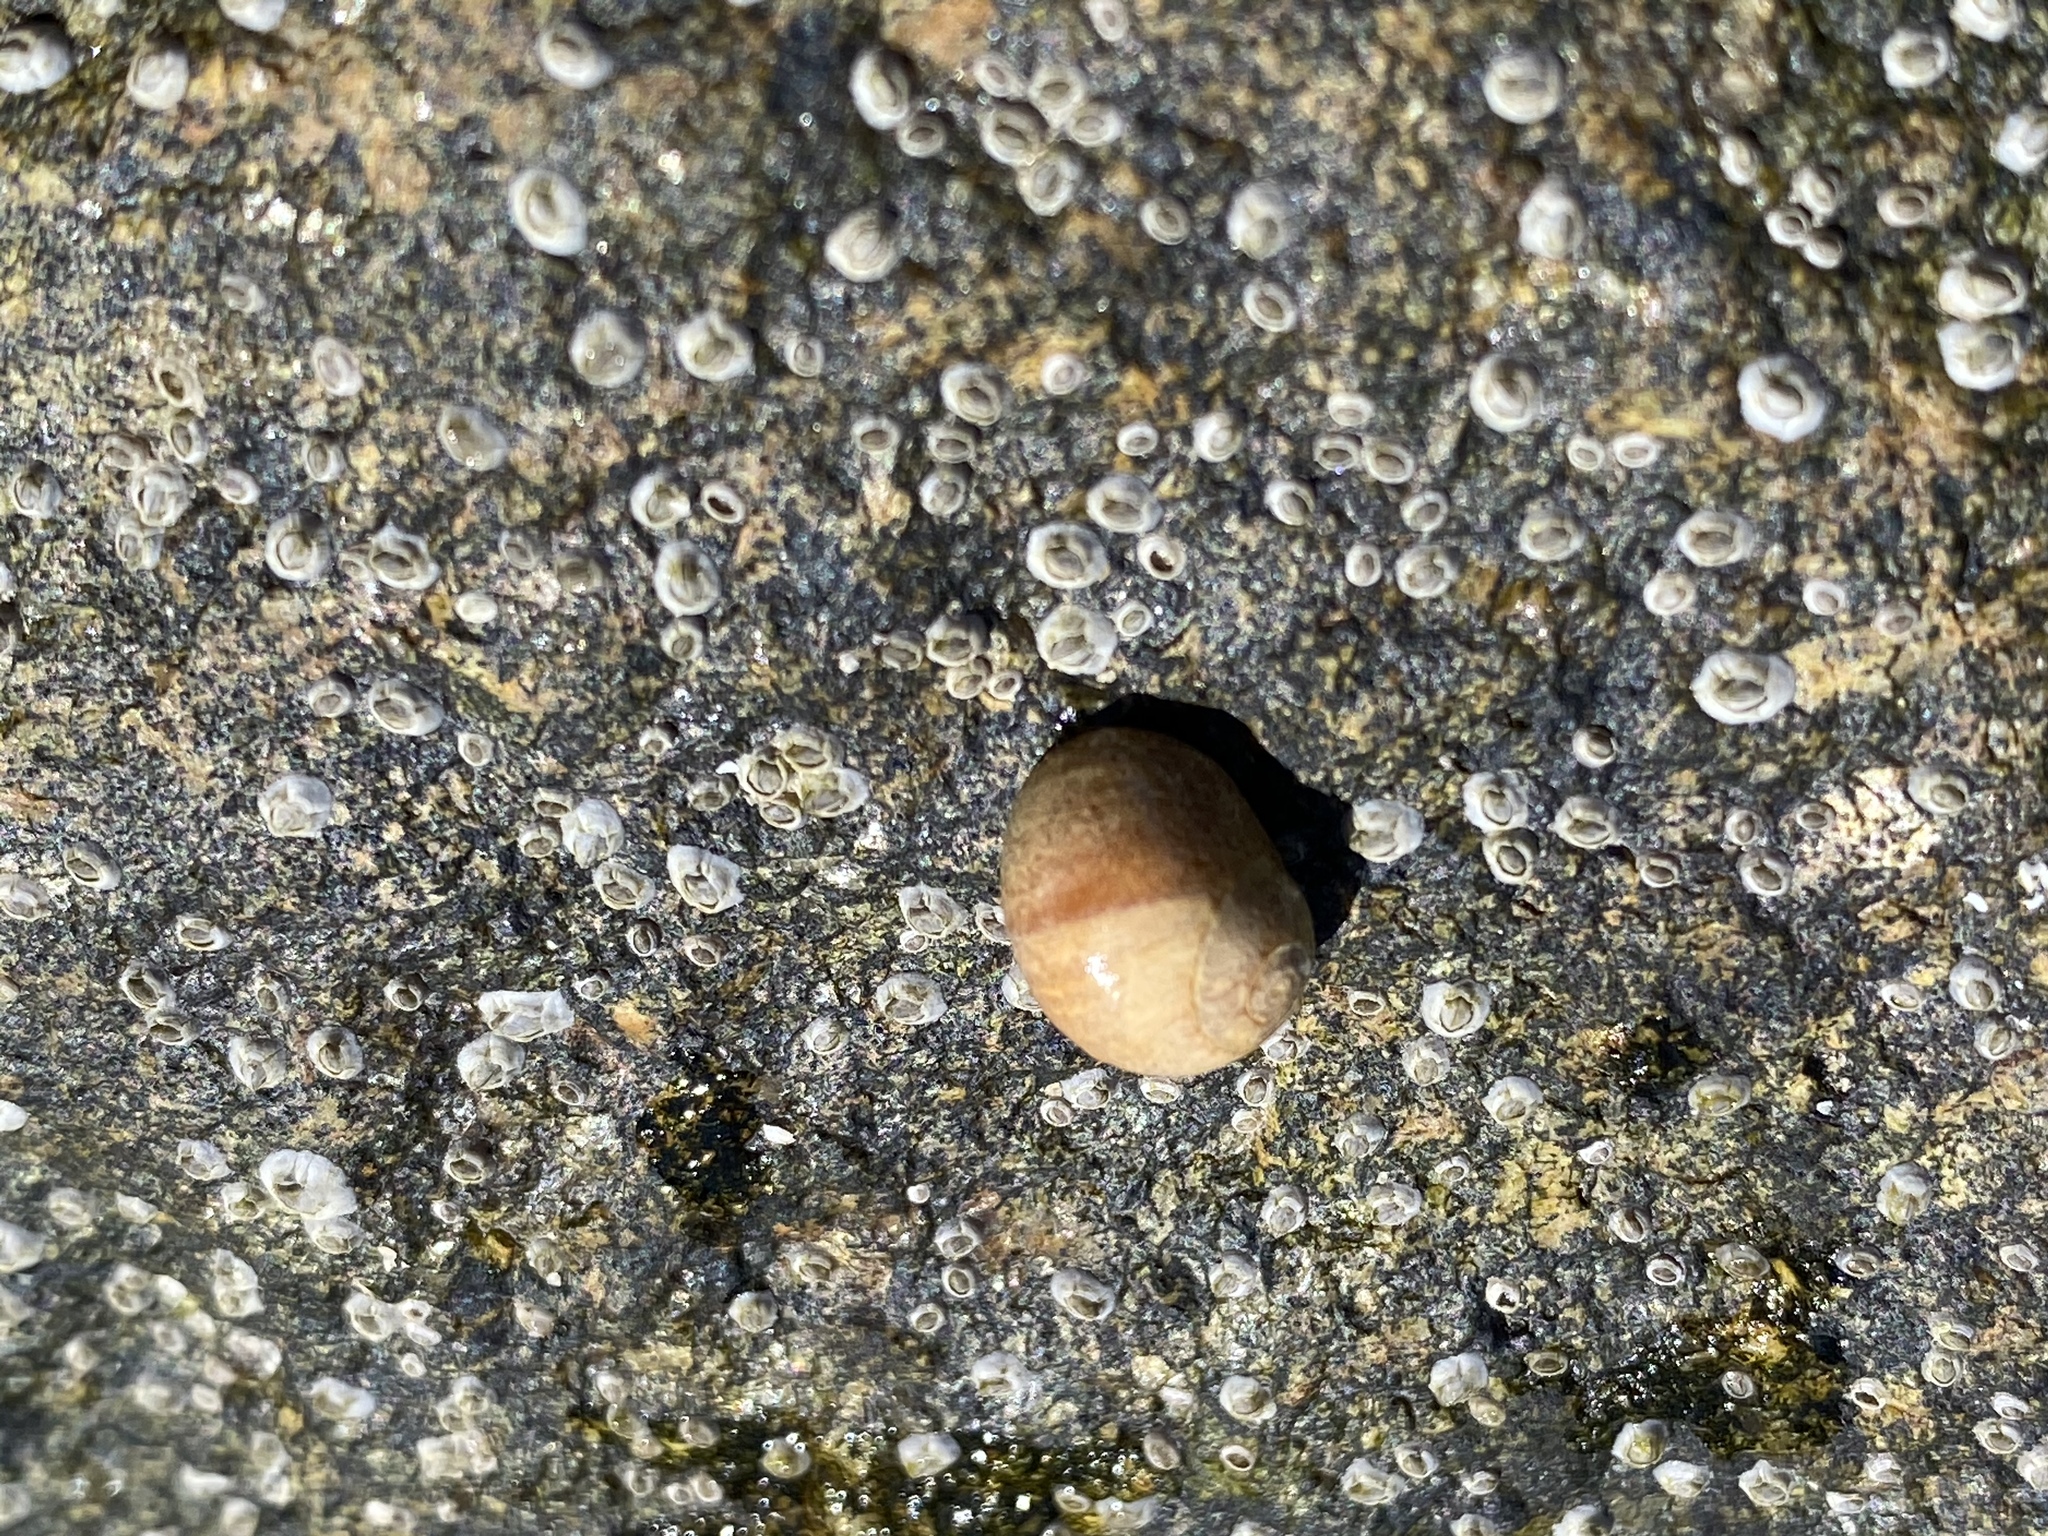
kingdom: Animalia
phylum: Mollusca
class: Gastropoda
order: Littorinimorpha
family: Littorinidae
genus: Littorina
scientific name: Littorina obtusata
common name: Flat periwinkle
